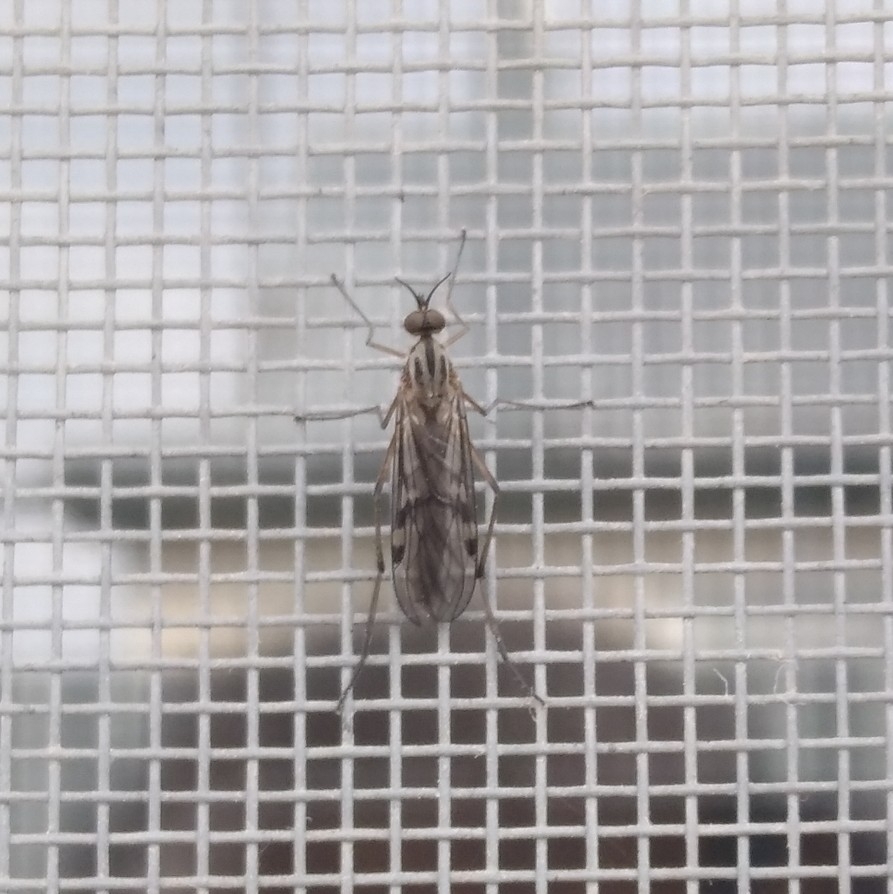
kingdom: Animalia
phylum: Arthropoda
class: Insecta
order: Diptera
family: Anisopodidae
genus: Sylvicola
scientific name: Sylvicola
